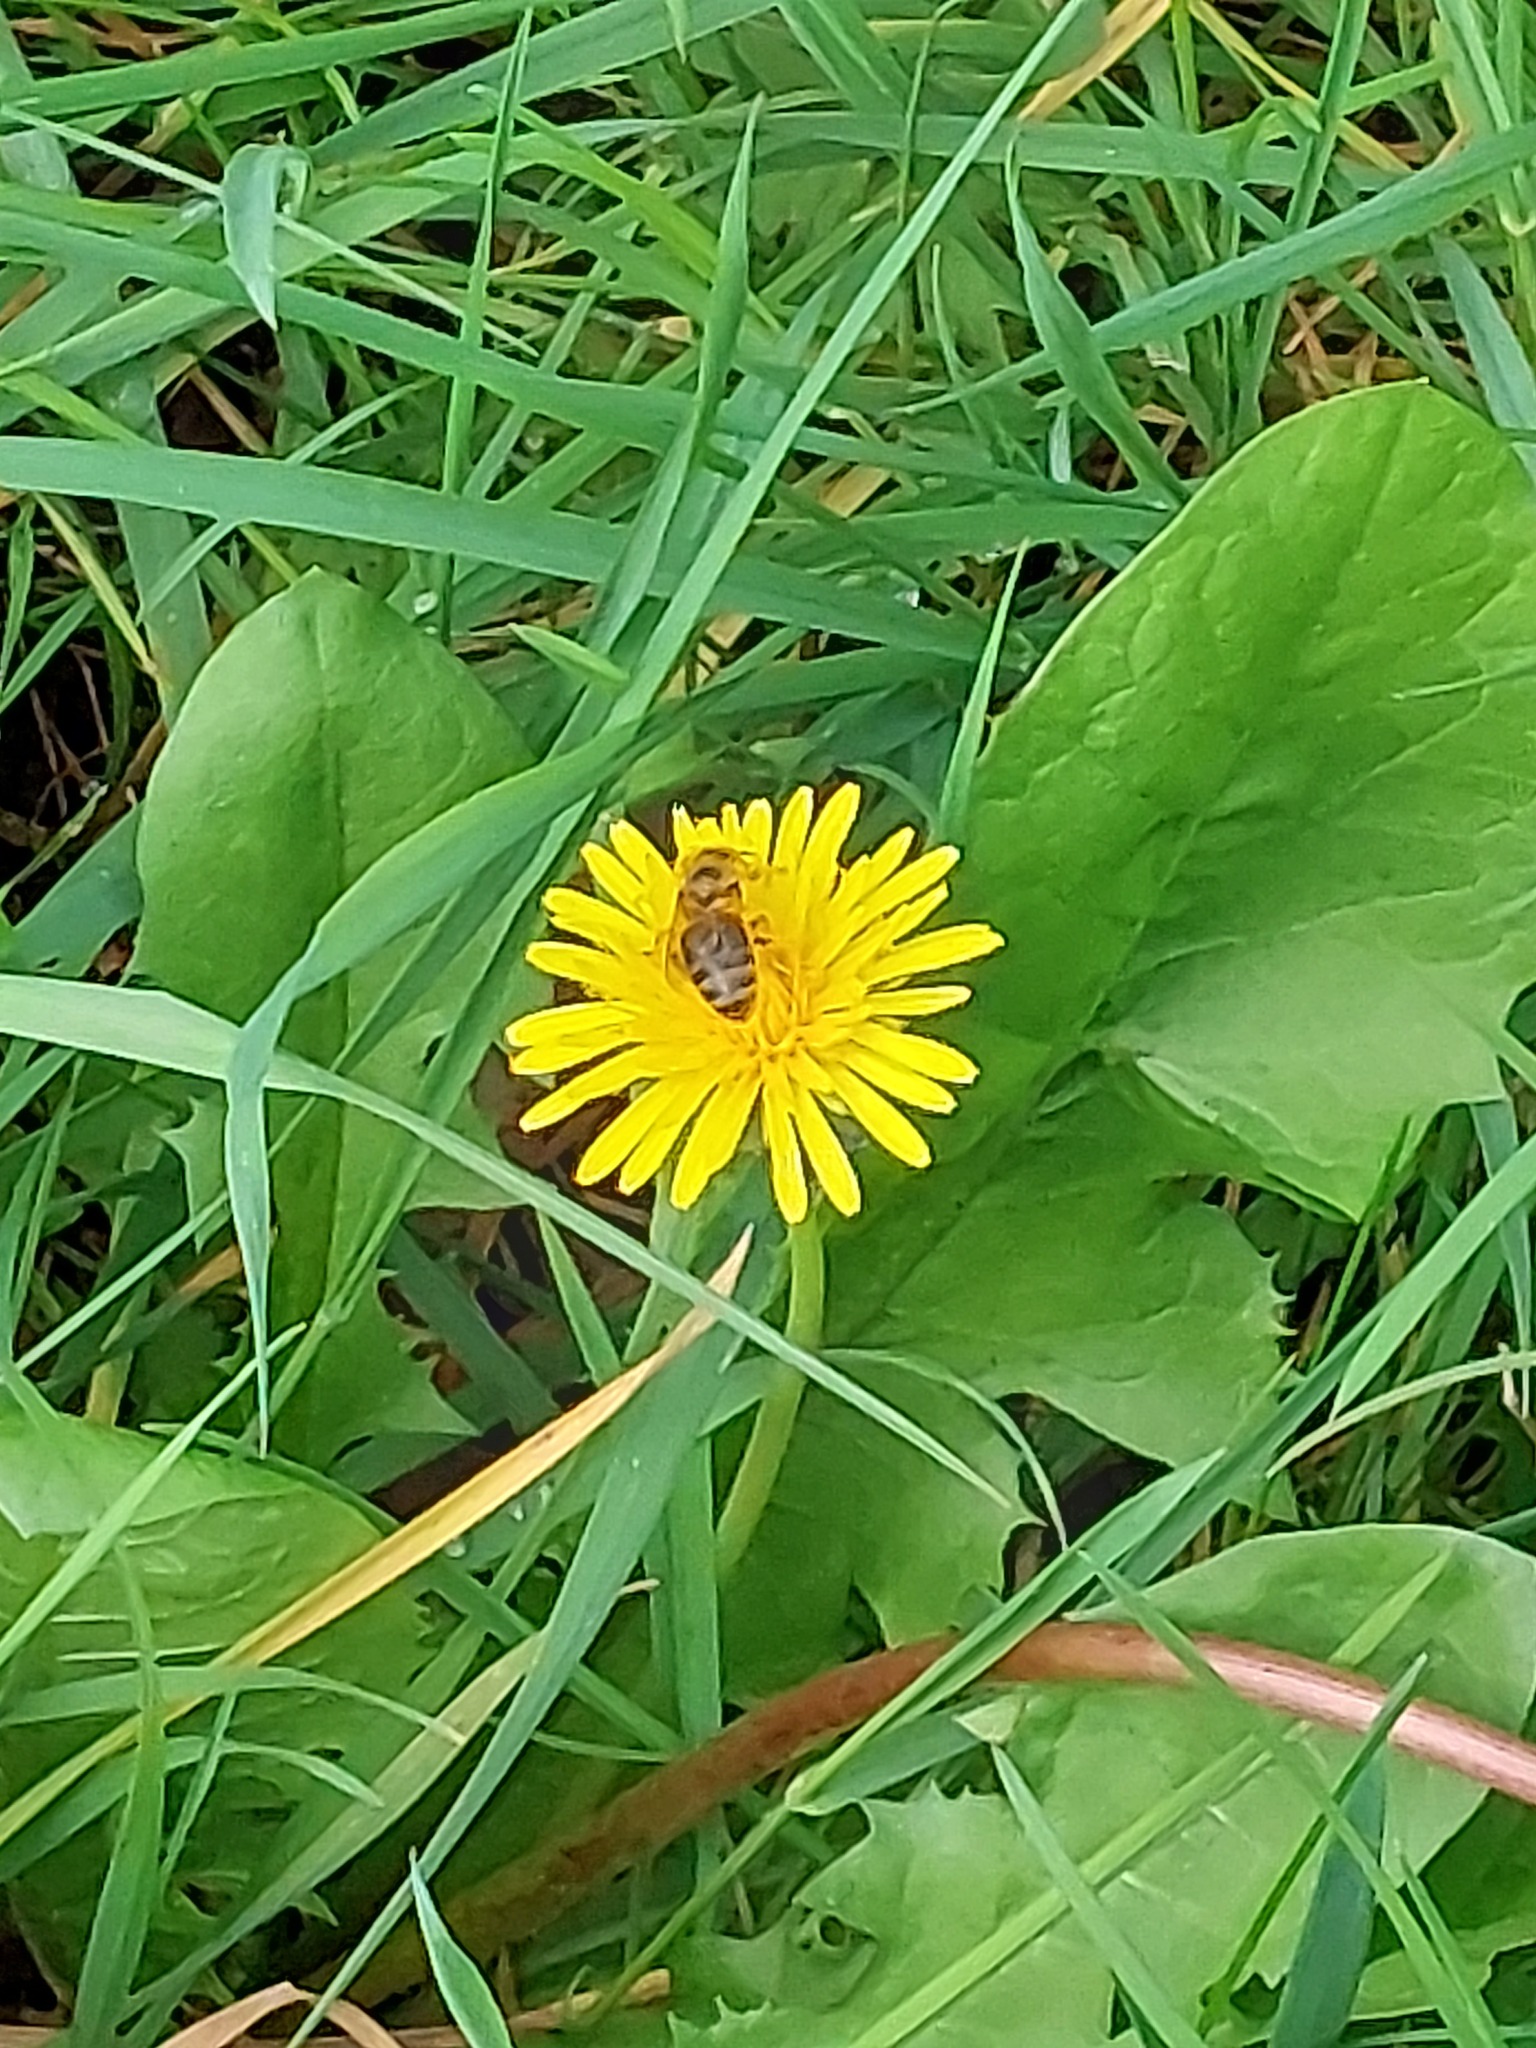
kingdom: Animalia
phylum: Arthropoda
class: Insecta
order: Hymenoptera
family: Apidae
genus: Apis
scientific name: Apis mellifera
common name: Honey bee
